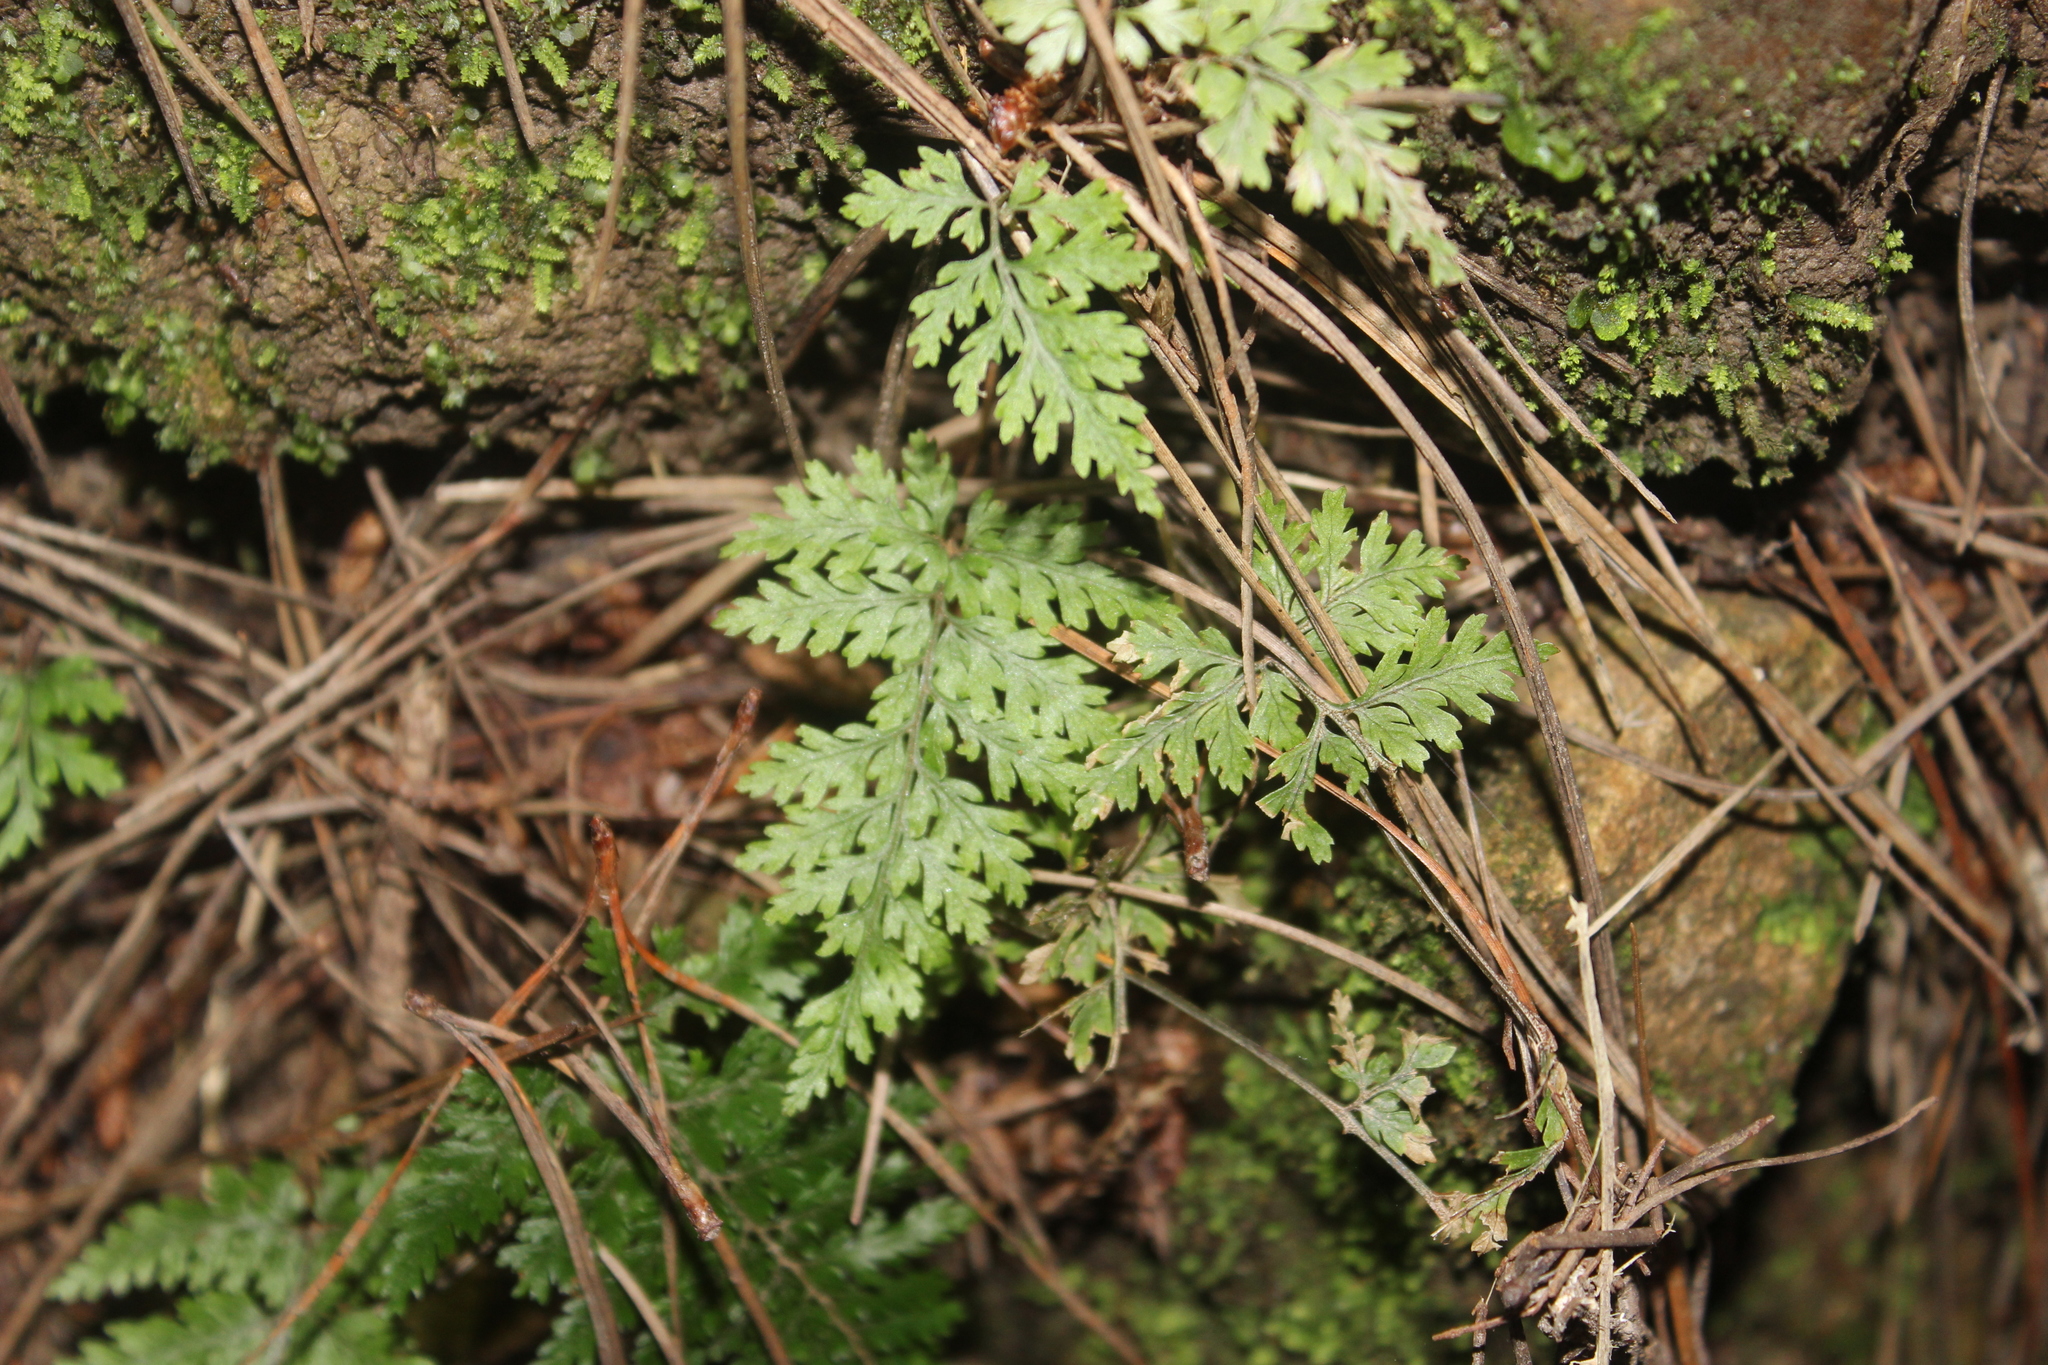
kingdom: Plantae
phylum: Tracheophyta
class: Polypodiopsida
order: Polypodiales
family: Dryopteridaceae
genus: Parapolystichum
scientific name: Parapolystichum glabellum
